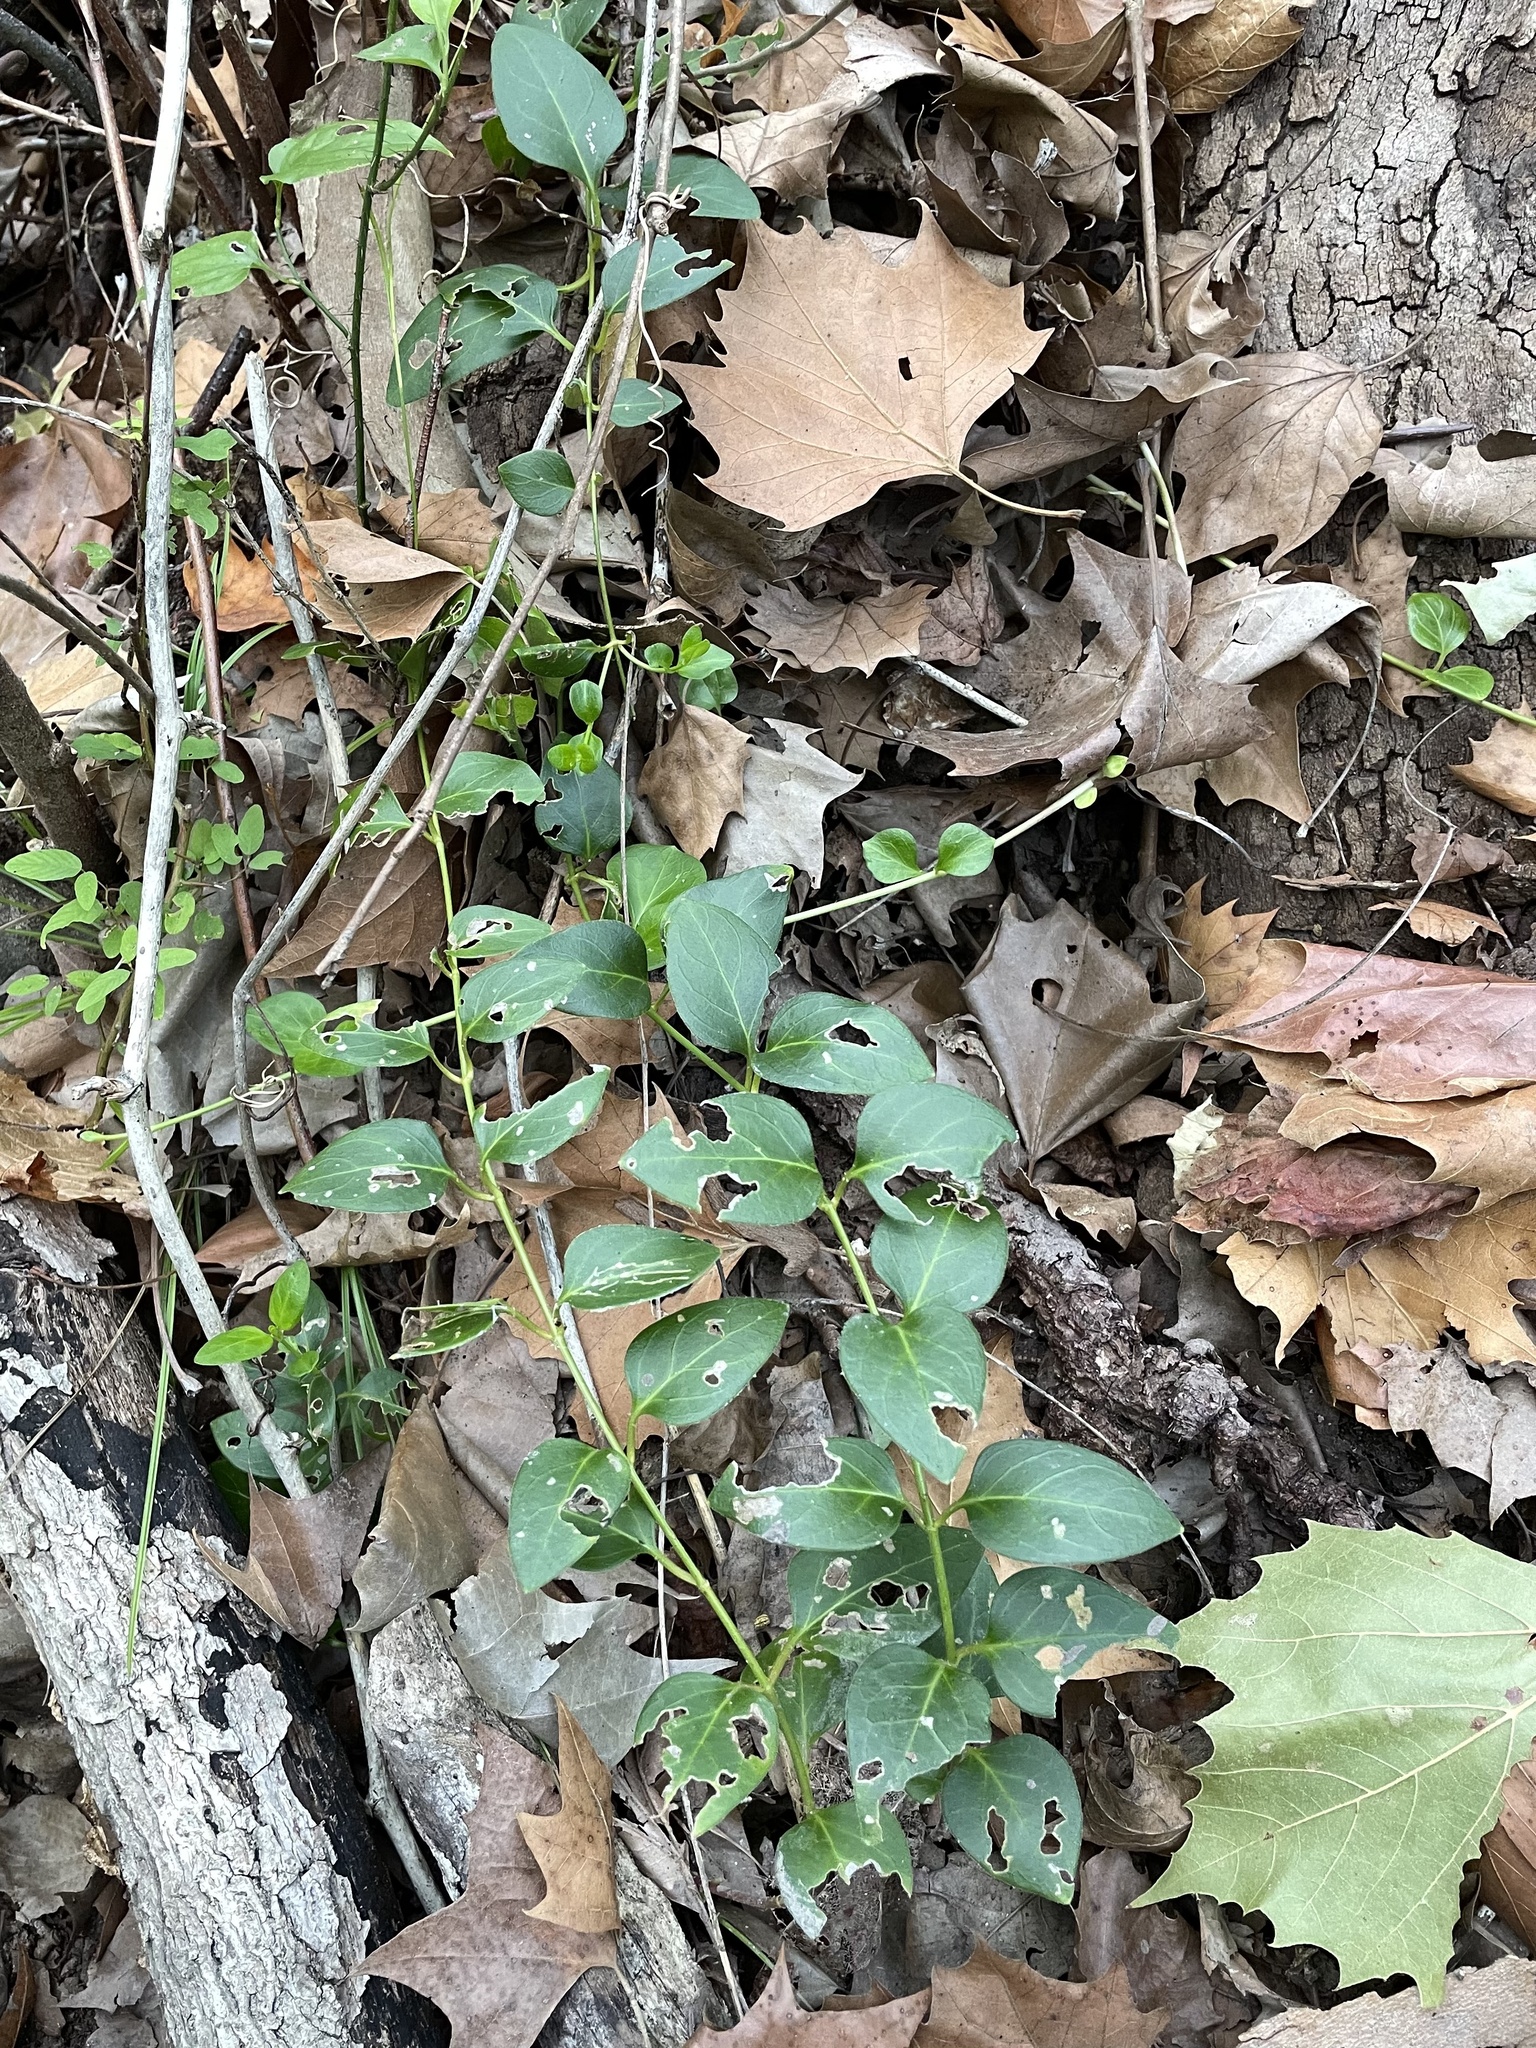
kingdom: Plantae
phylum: Tracheophyta
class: Magnoliopsida
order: Gentianales
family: Apocynaceae
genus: Vinca
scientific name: Vinca major
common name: Greater periwinkle
